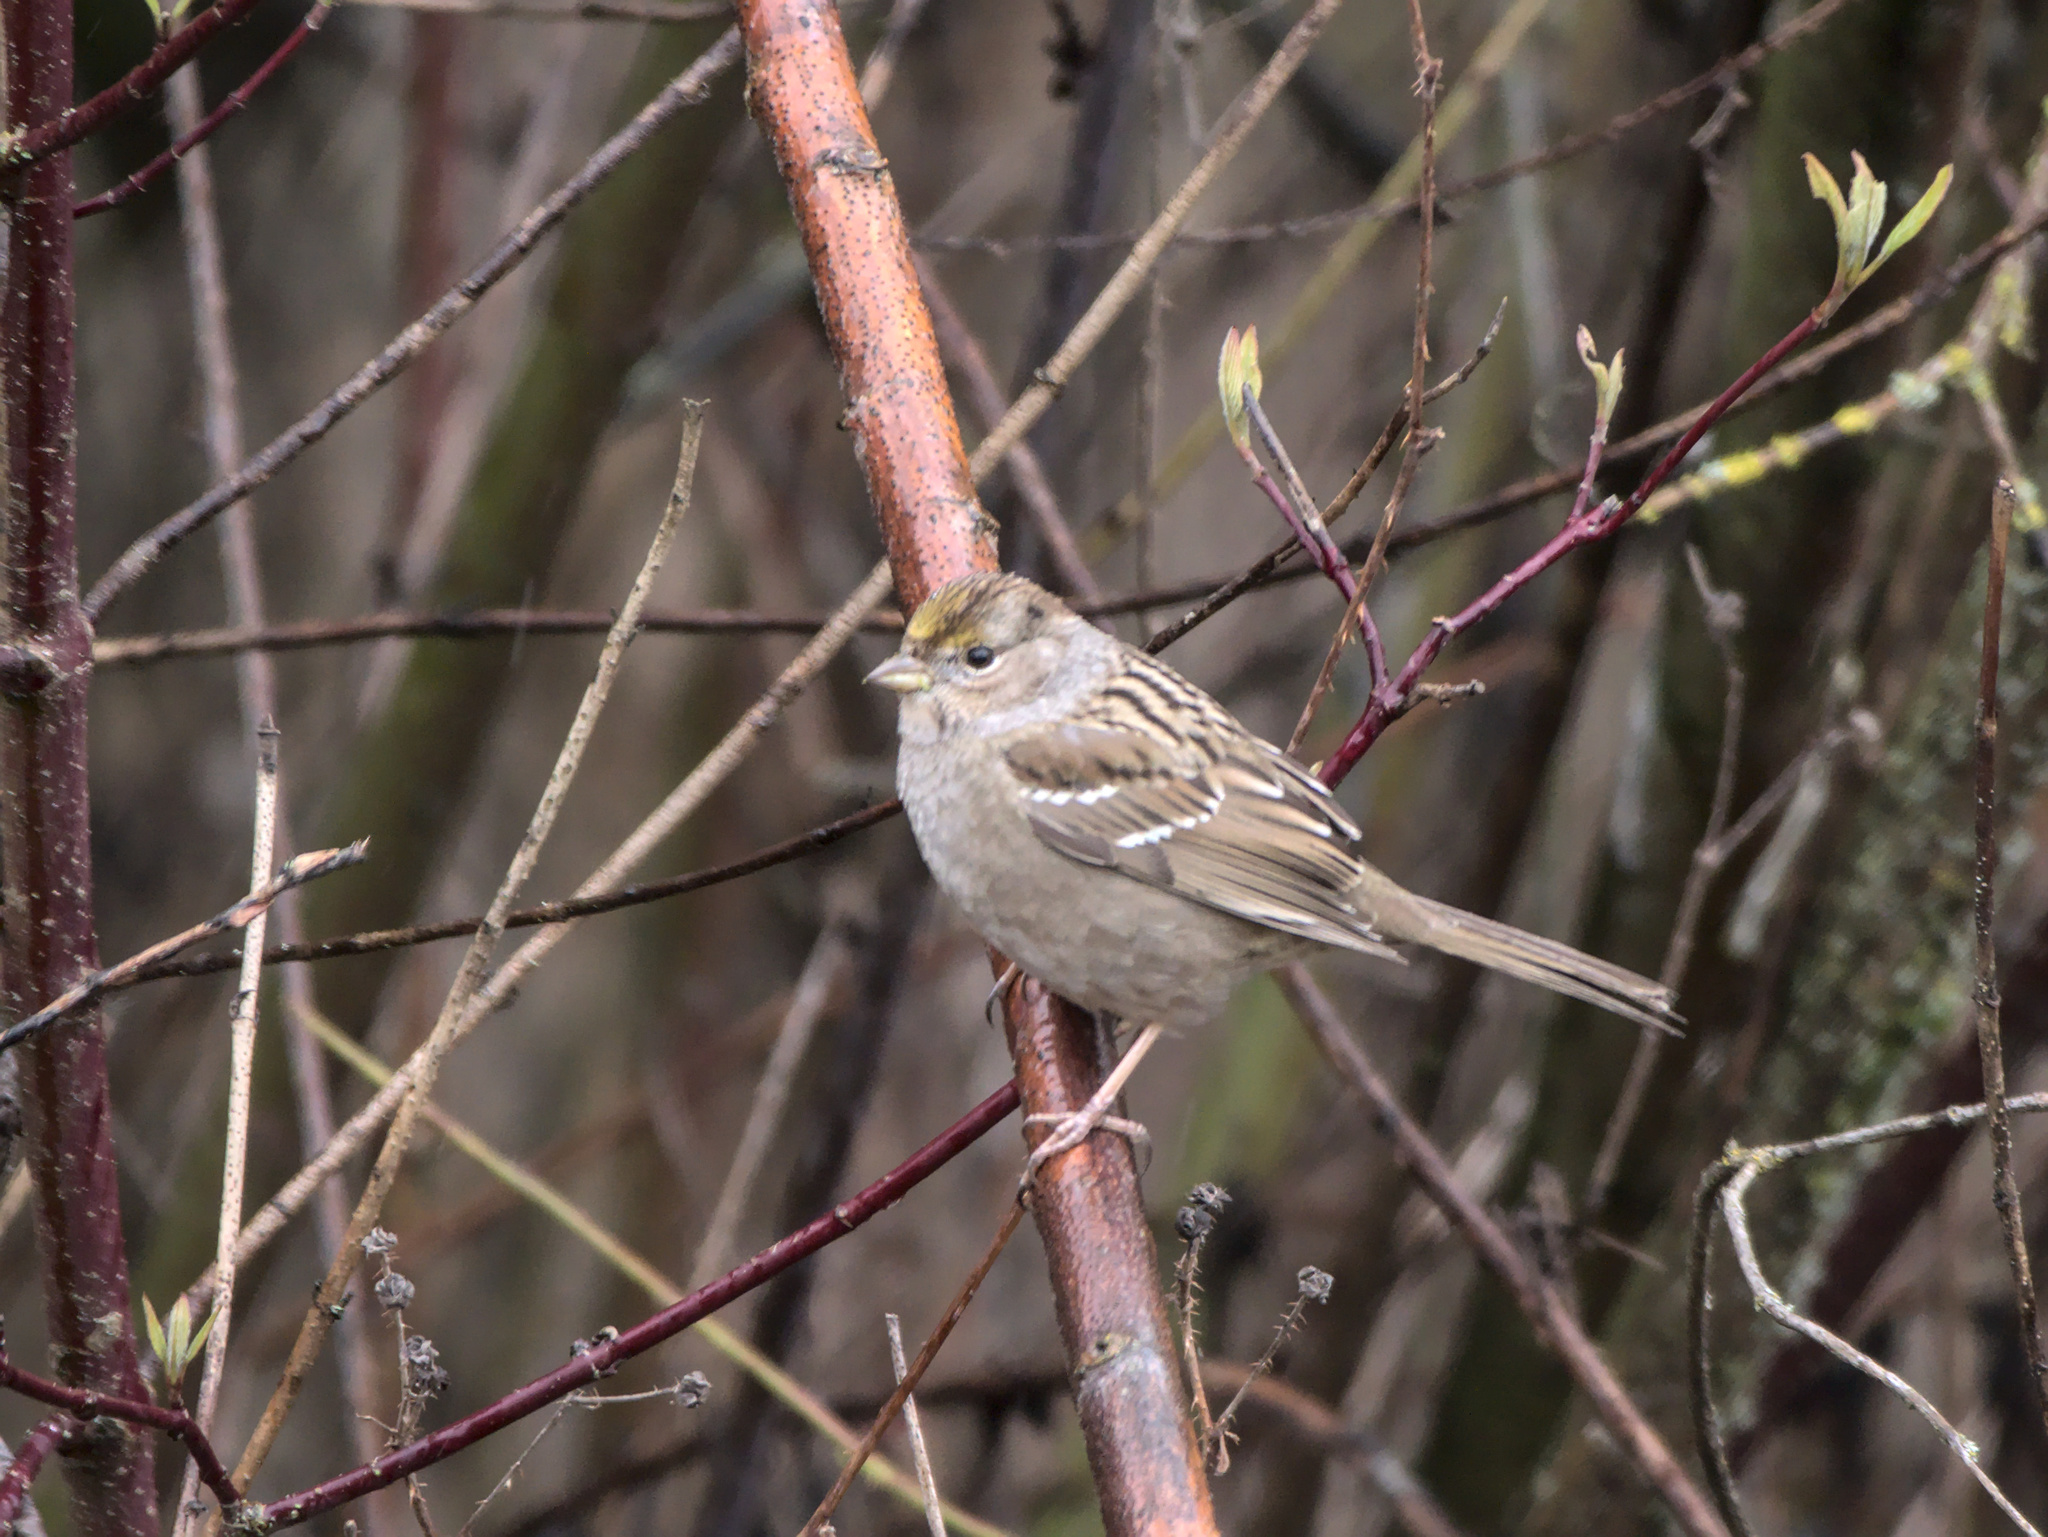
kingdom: Animalia
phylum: Chordata
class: Aves
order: Passeriformes
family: Passerellidae
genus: Zonotrichia
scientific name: Zonotrichia atricapilla
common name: Golden-crowned sparrow
